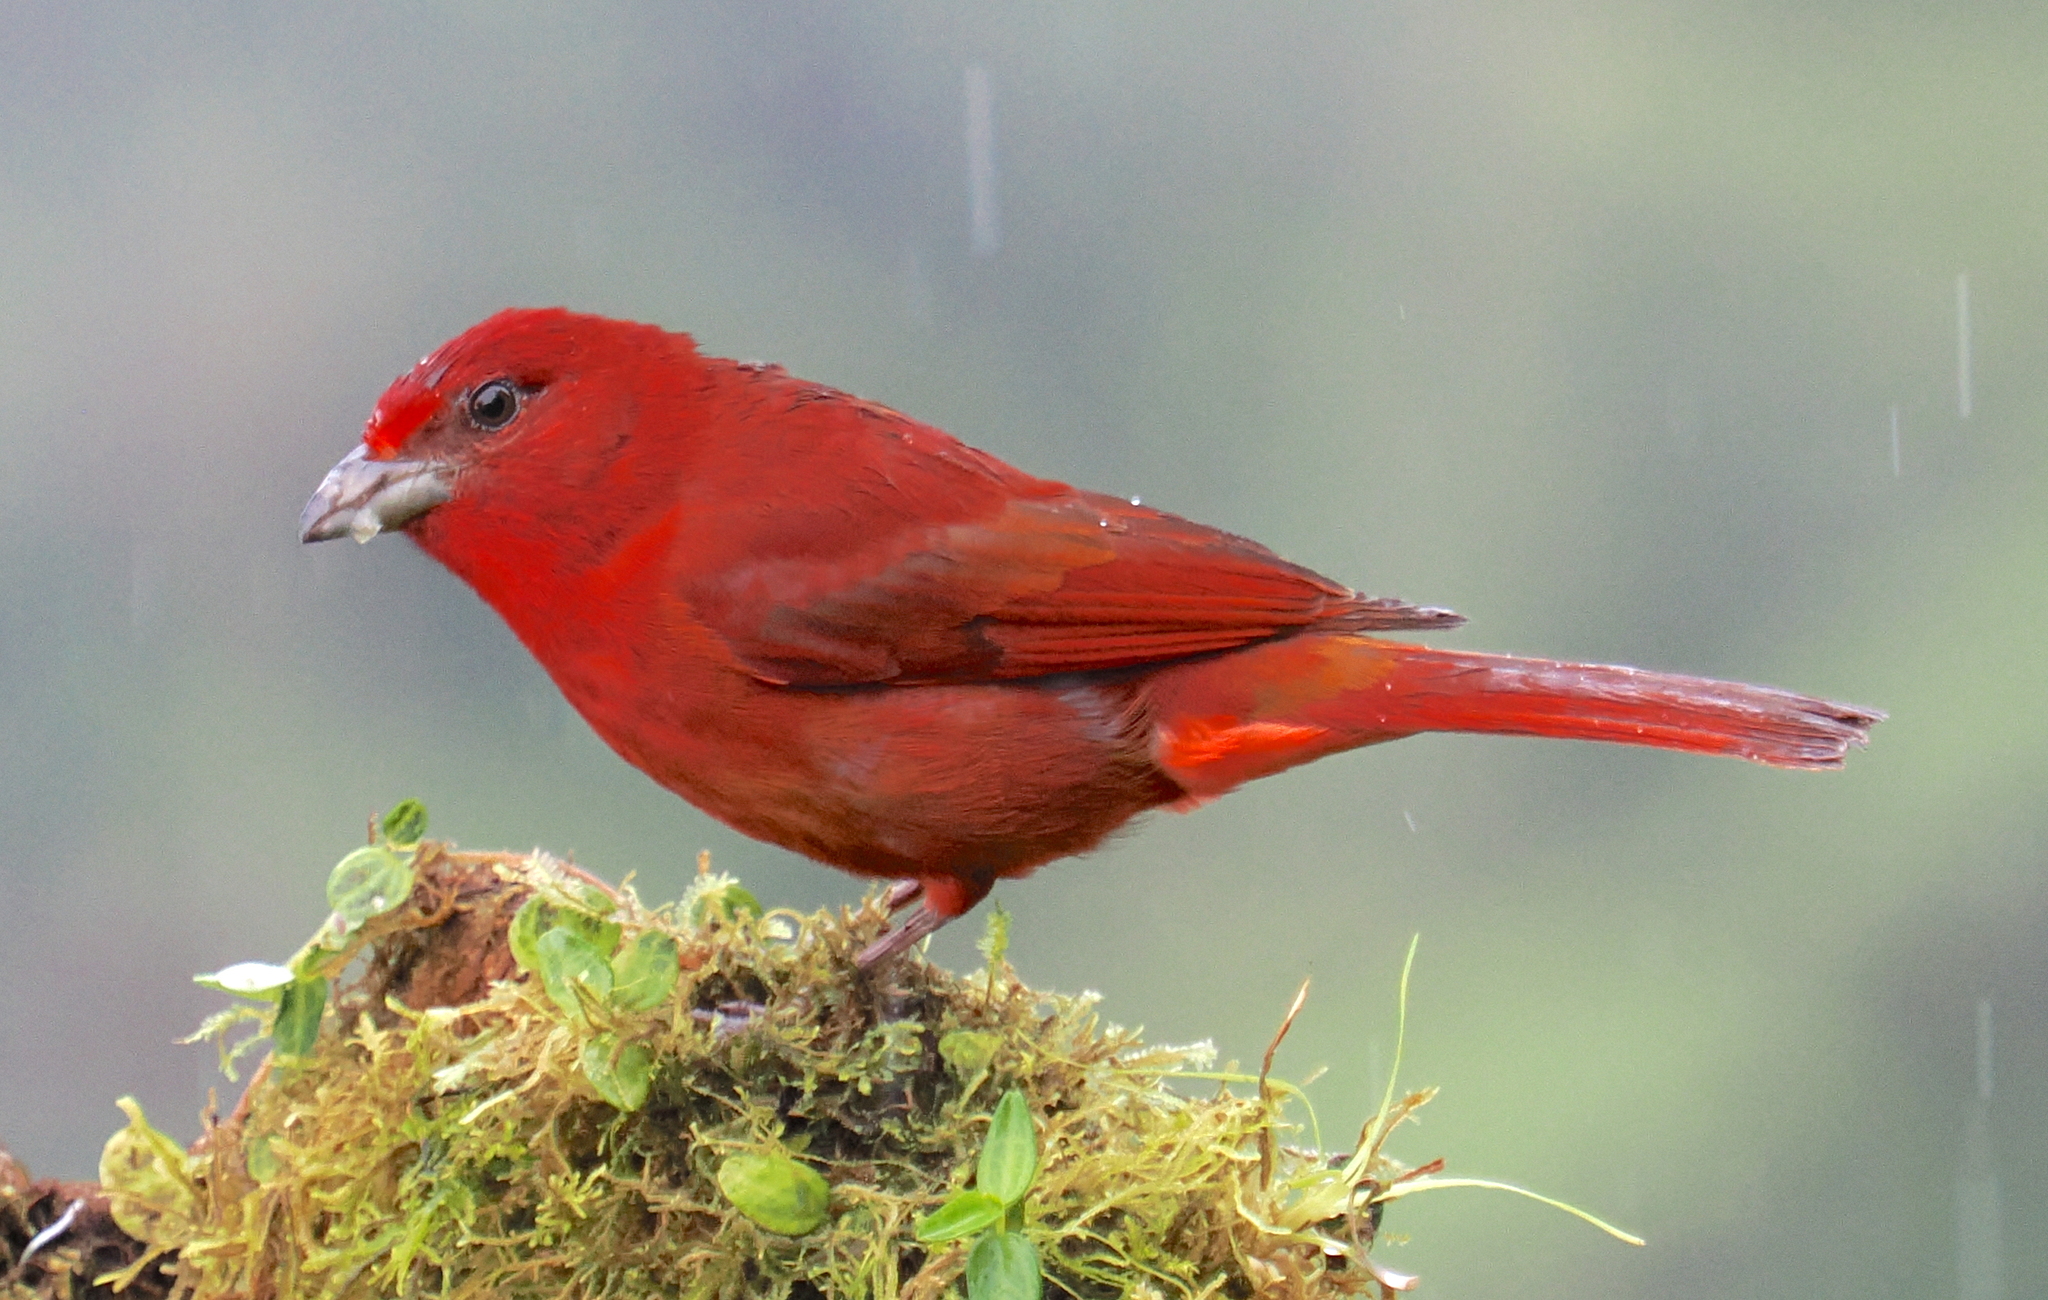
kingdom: Animalia
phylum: Chordata
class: Aves
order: Passeriformes
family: Cardinalidae
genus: Piranga
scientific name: Piranga flava
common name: Red tanager
